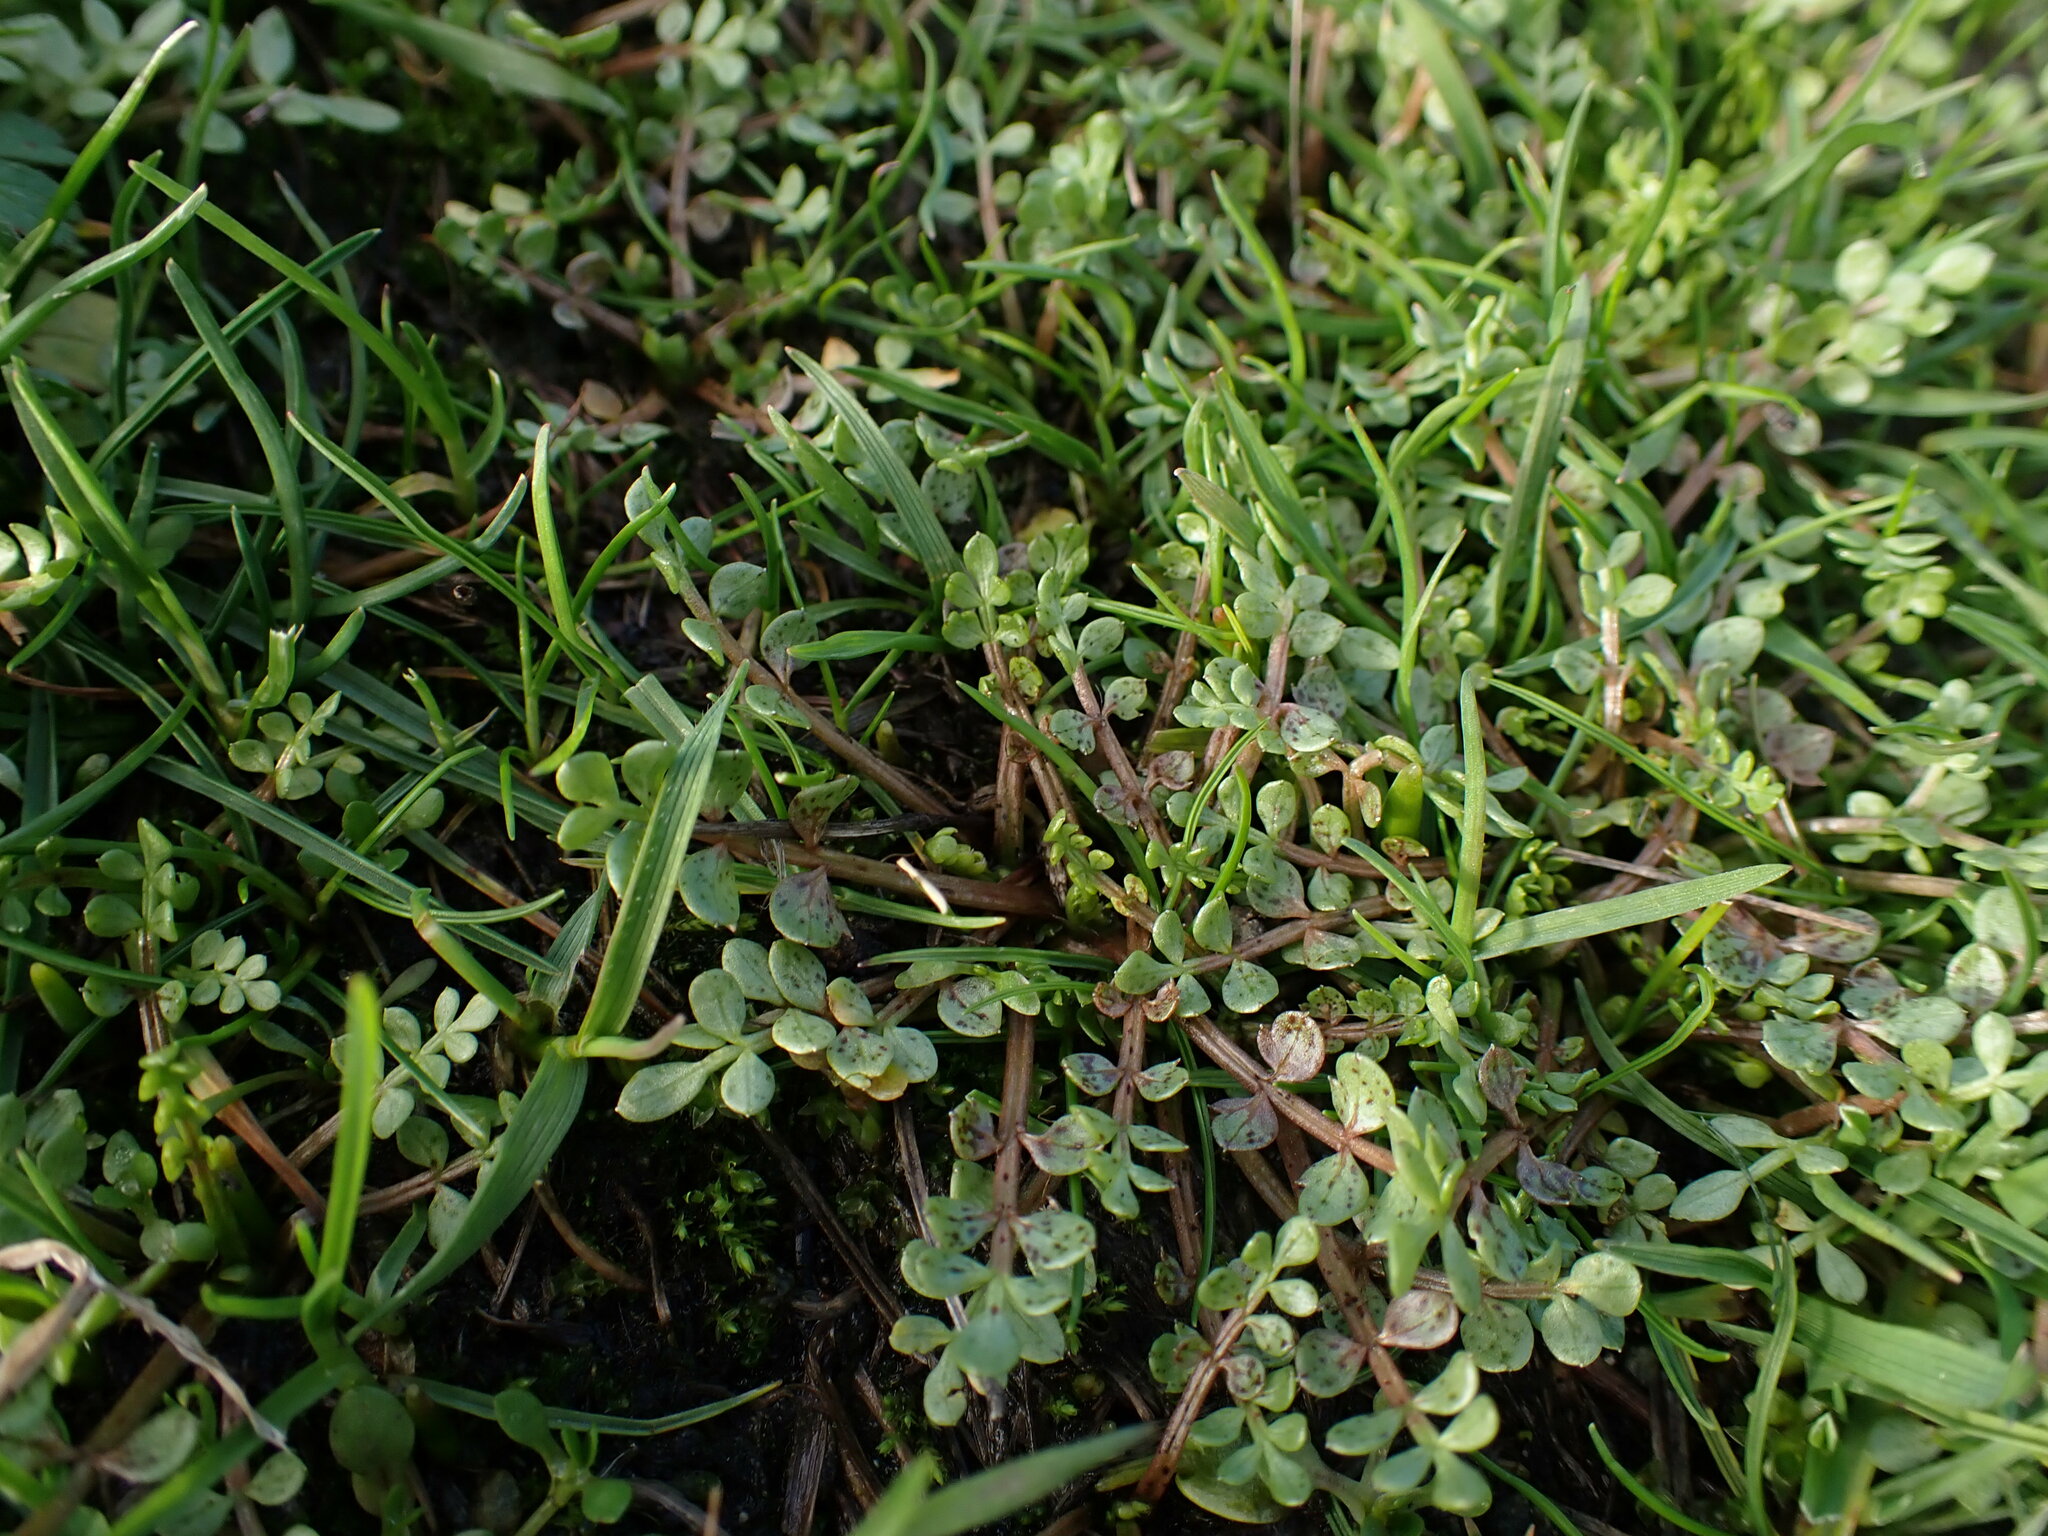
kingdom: Plantae
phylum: Tracheophyta
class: Magnoliopsida
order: Brassicales
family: Limnanthaceae
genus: Limnanthes
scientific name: Limnanthes macounii
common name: Macoun's meadowfoam
